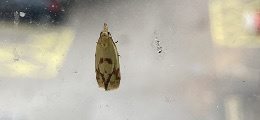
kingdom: Animalia
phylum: Arthropoda
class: Insecta
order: Lepidoptera
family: Tortricidae
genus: Agapeta
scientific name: Agapeta hamana
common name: Common yellow conch
